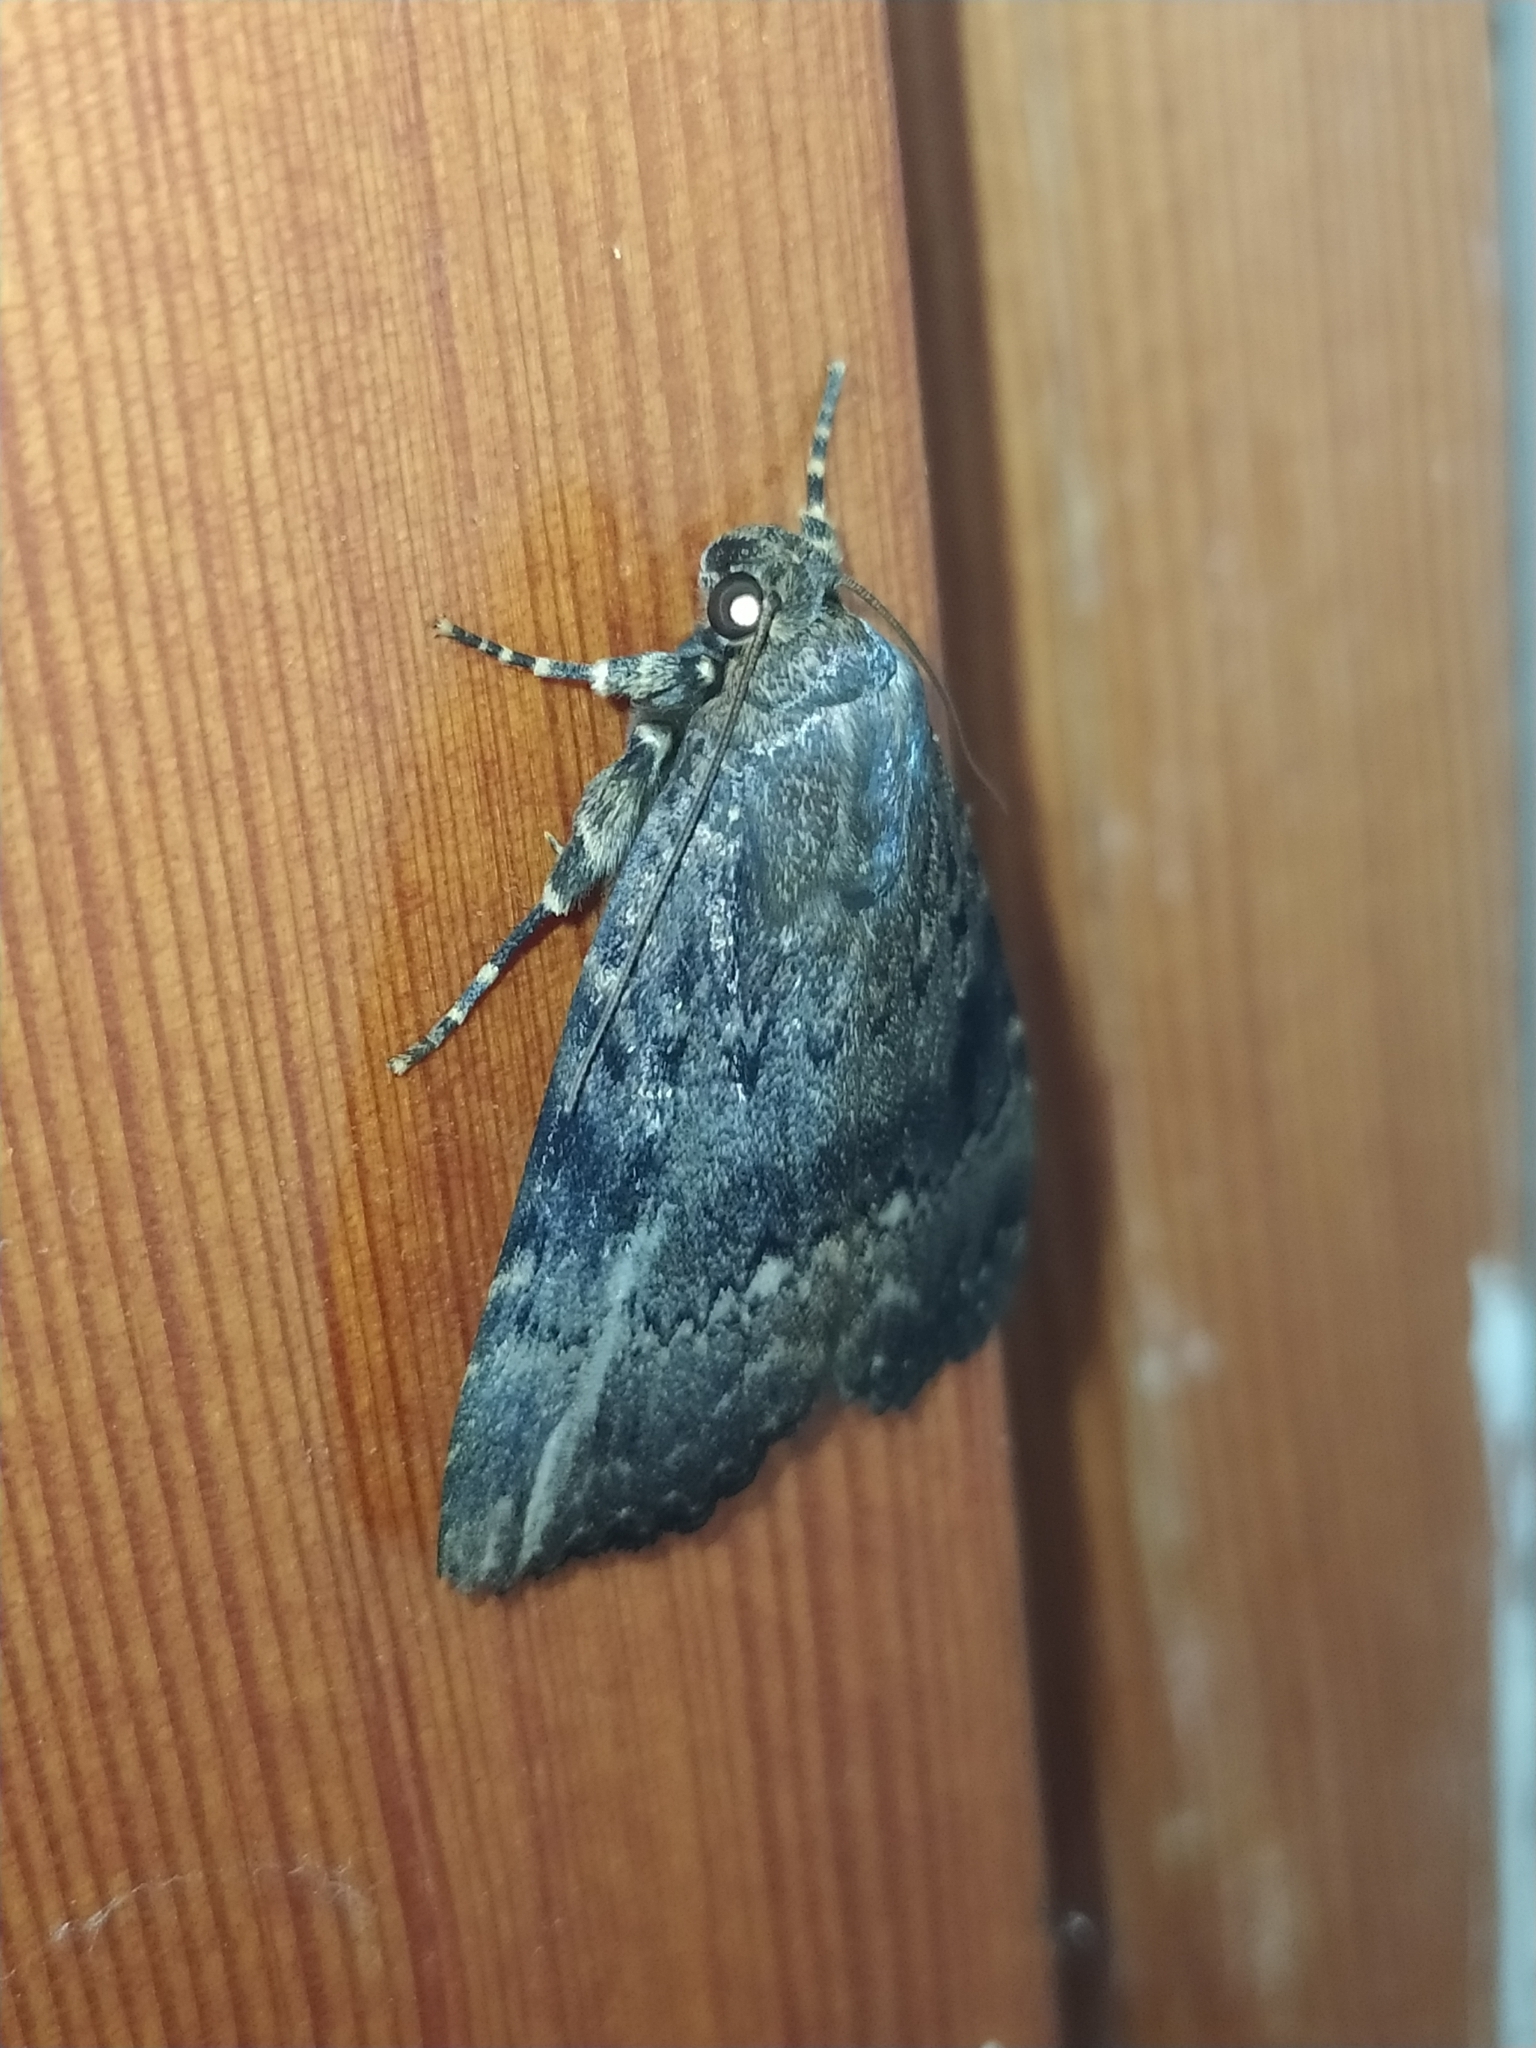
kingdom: Animalia
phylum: Arthropoda
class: Insecta
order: Lepidoptera
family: Noctuidae
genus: Amphipyra
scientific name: Amphipyra pyramidea
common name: Copper underwing
